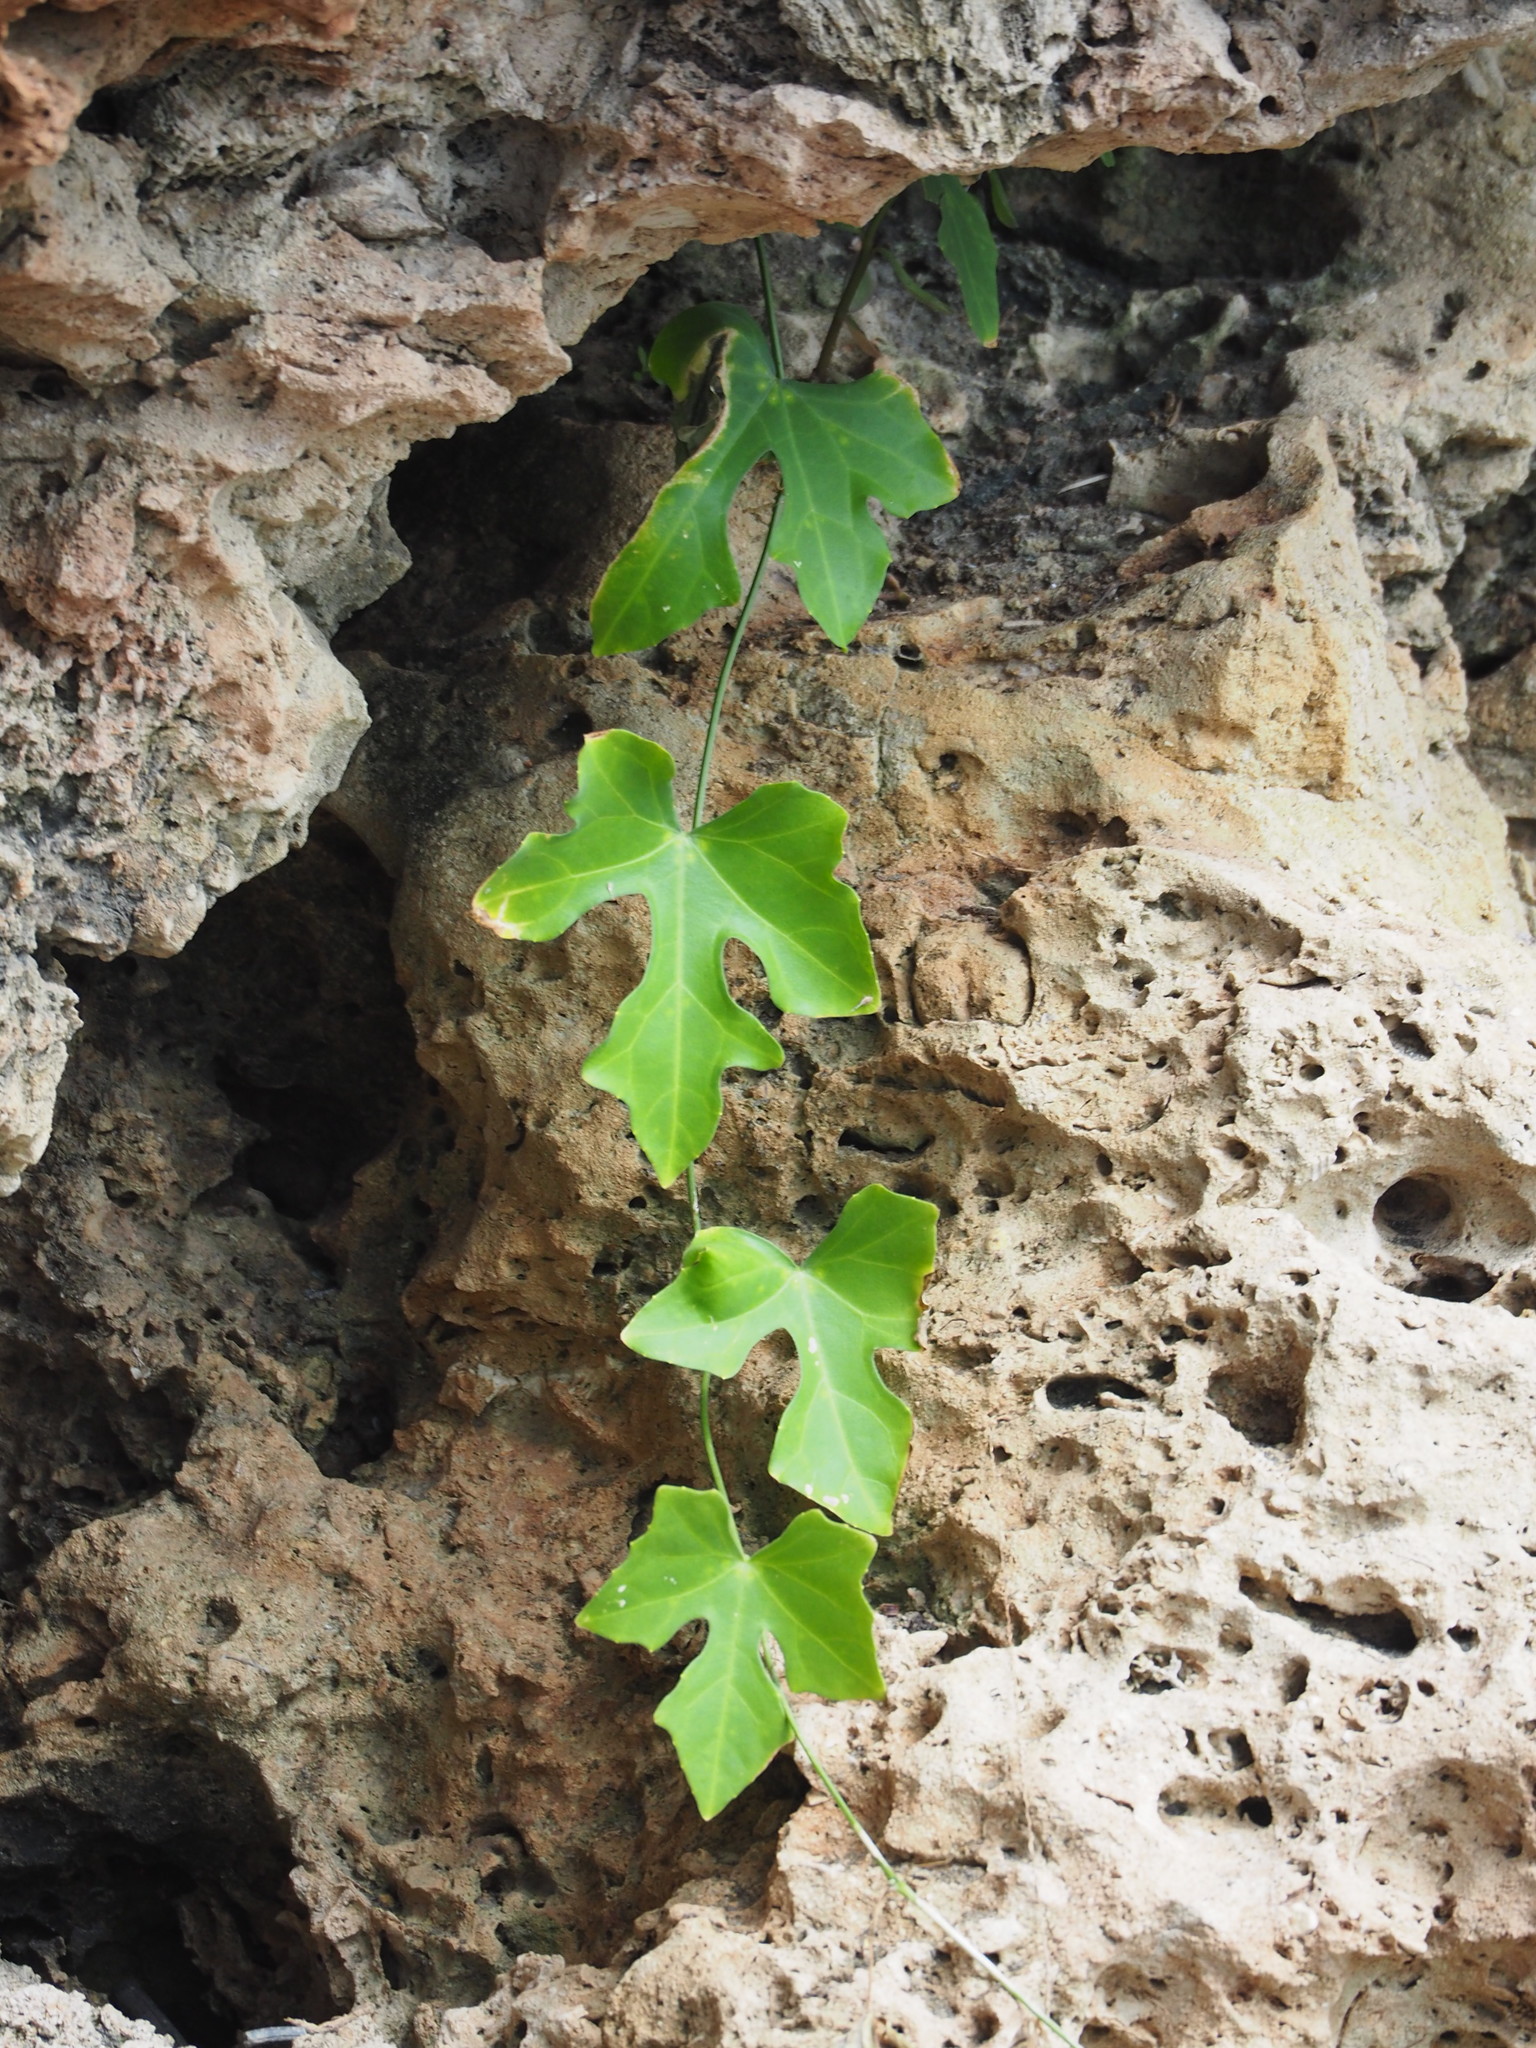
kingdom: Plantae
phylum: Tracheophyta
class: Magnoliopsida
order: Cucurbitales
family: Cucurbitaceae
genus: Coccinia
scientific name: Coccinia grandis
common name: Ivy gourd
